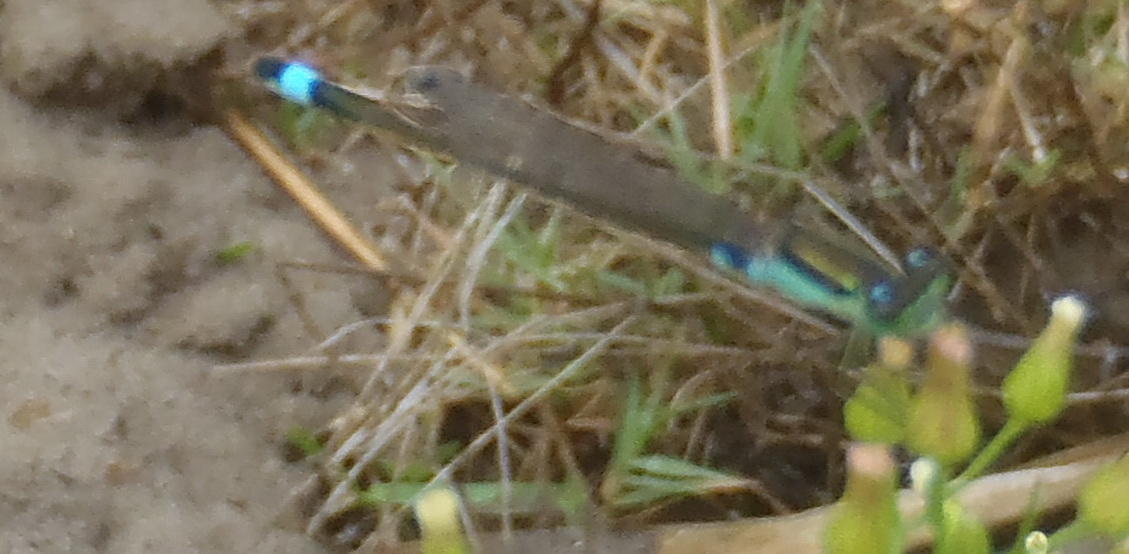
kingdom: Animalia
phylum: Arthropoda
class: Insecta
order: Odonata
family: Coenagrionidae
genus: Ischnura
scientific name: Ischnura senegalensis
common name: Tropical bluetail
